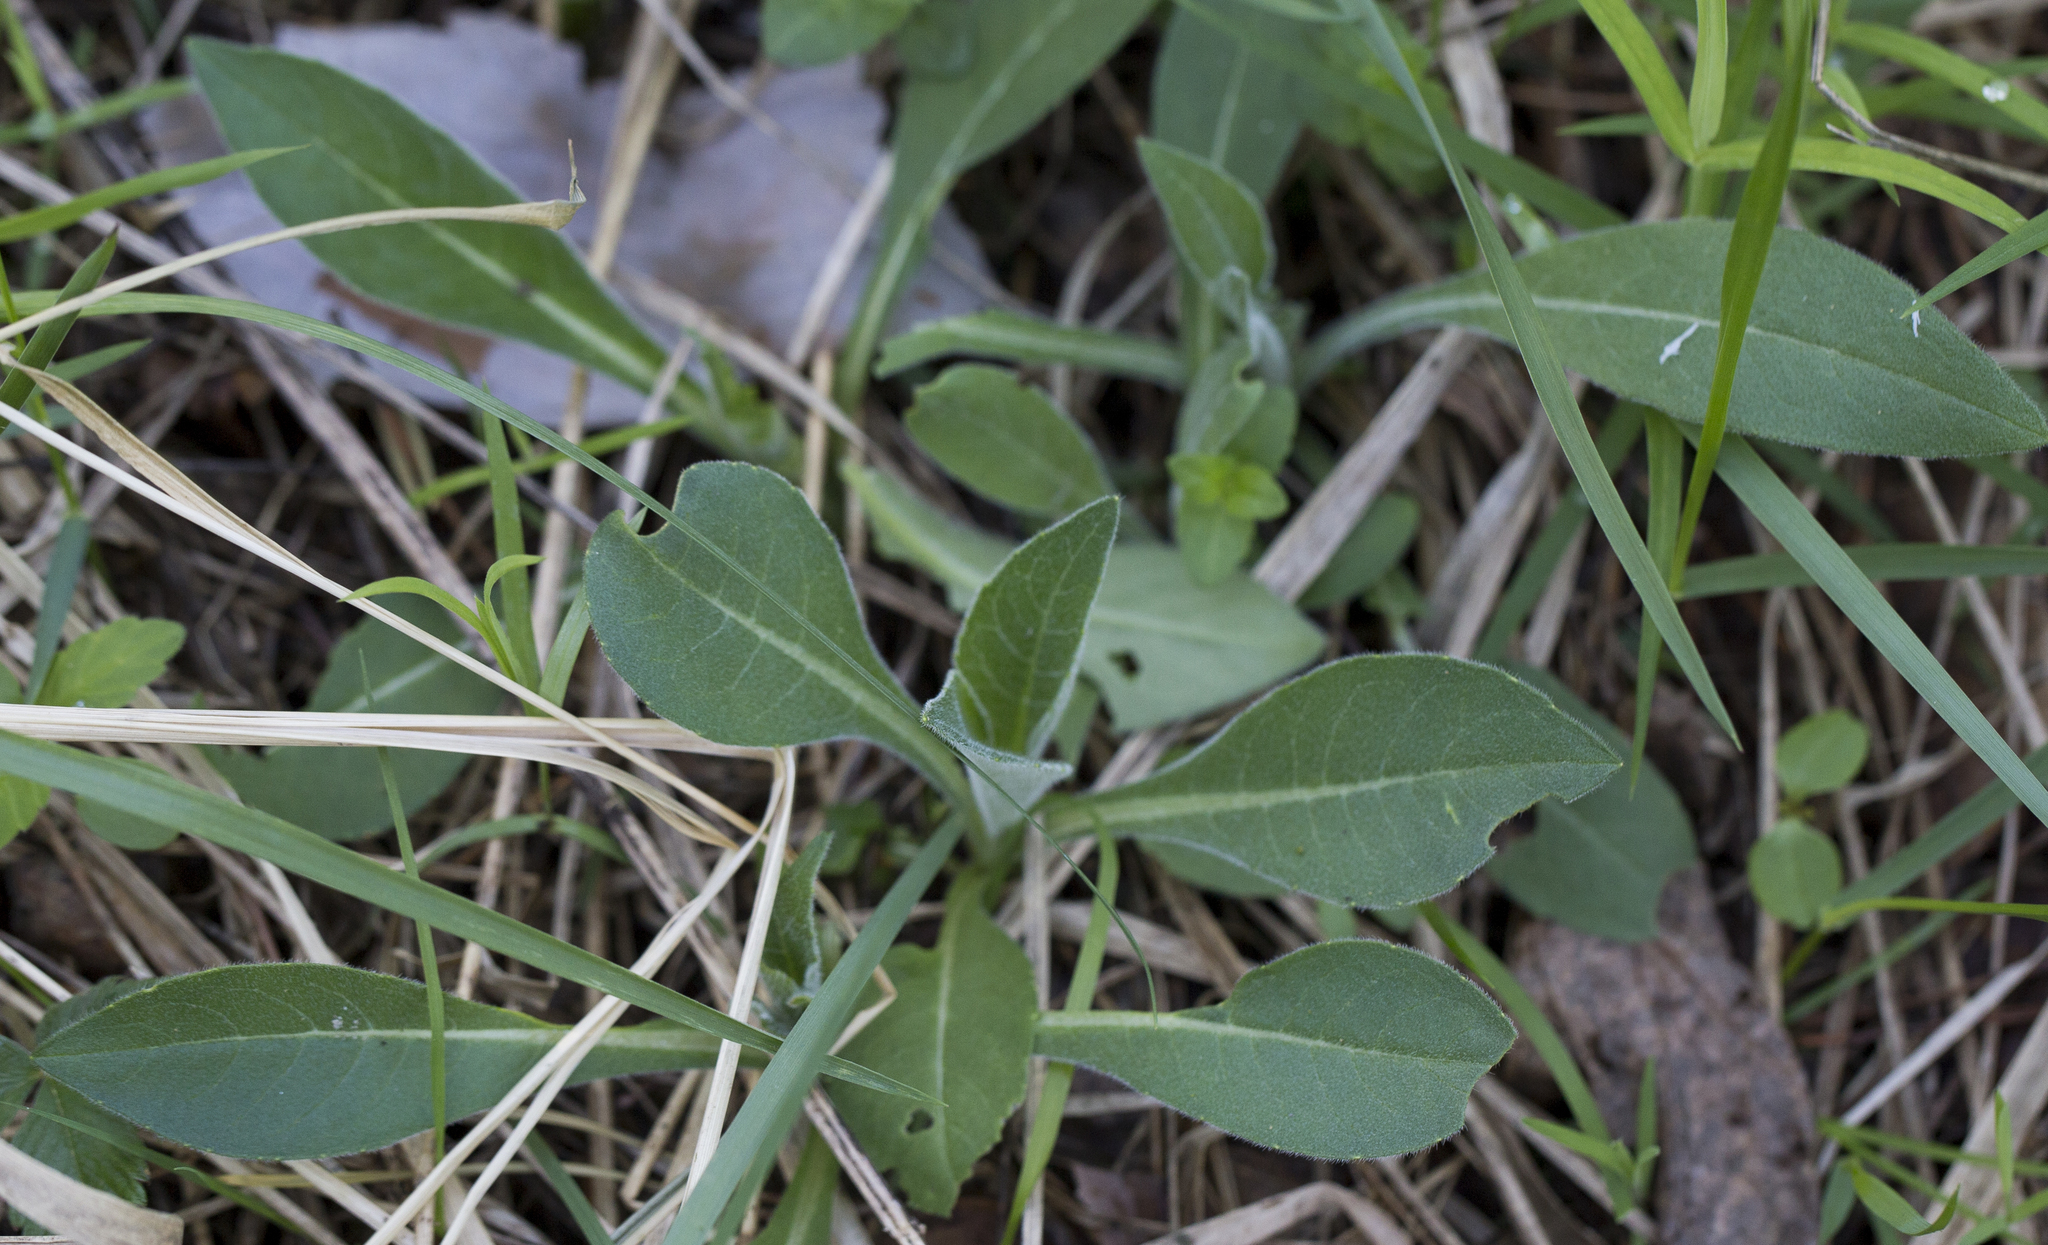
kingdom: Plantae
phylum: Tracheophyta
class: Magnoliopsida
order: Dipsacales
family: Caprifoliaceae
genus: Knautia
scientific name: Knautia arvensis
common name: Field scabiosa
